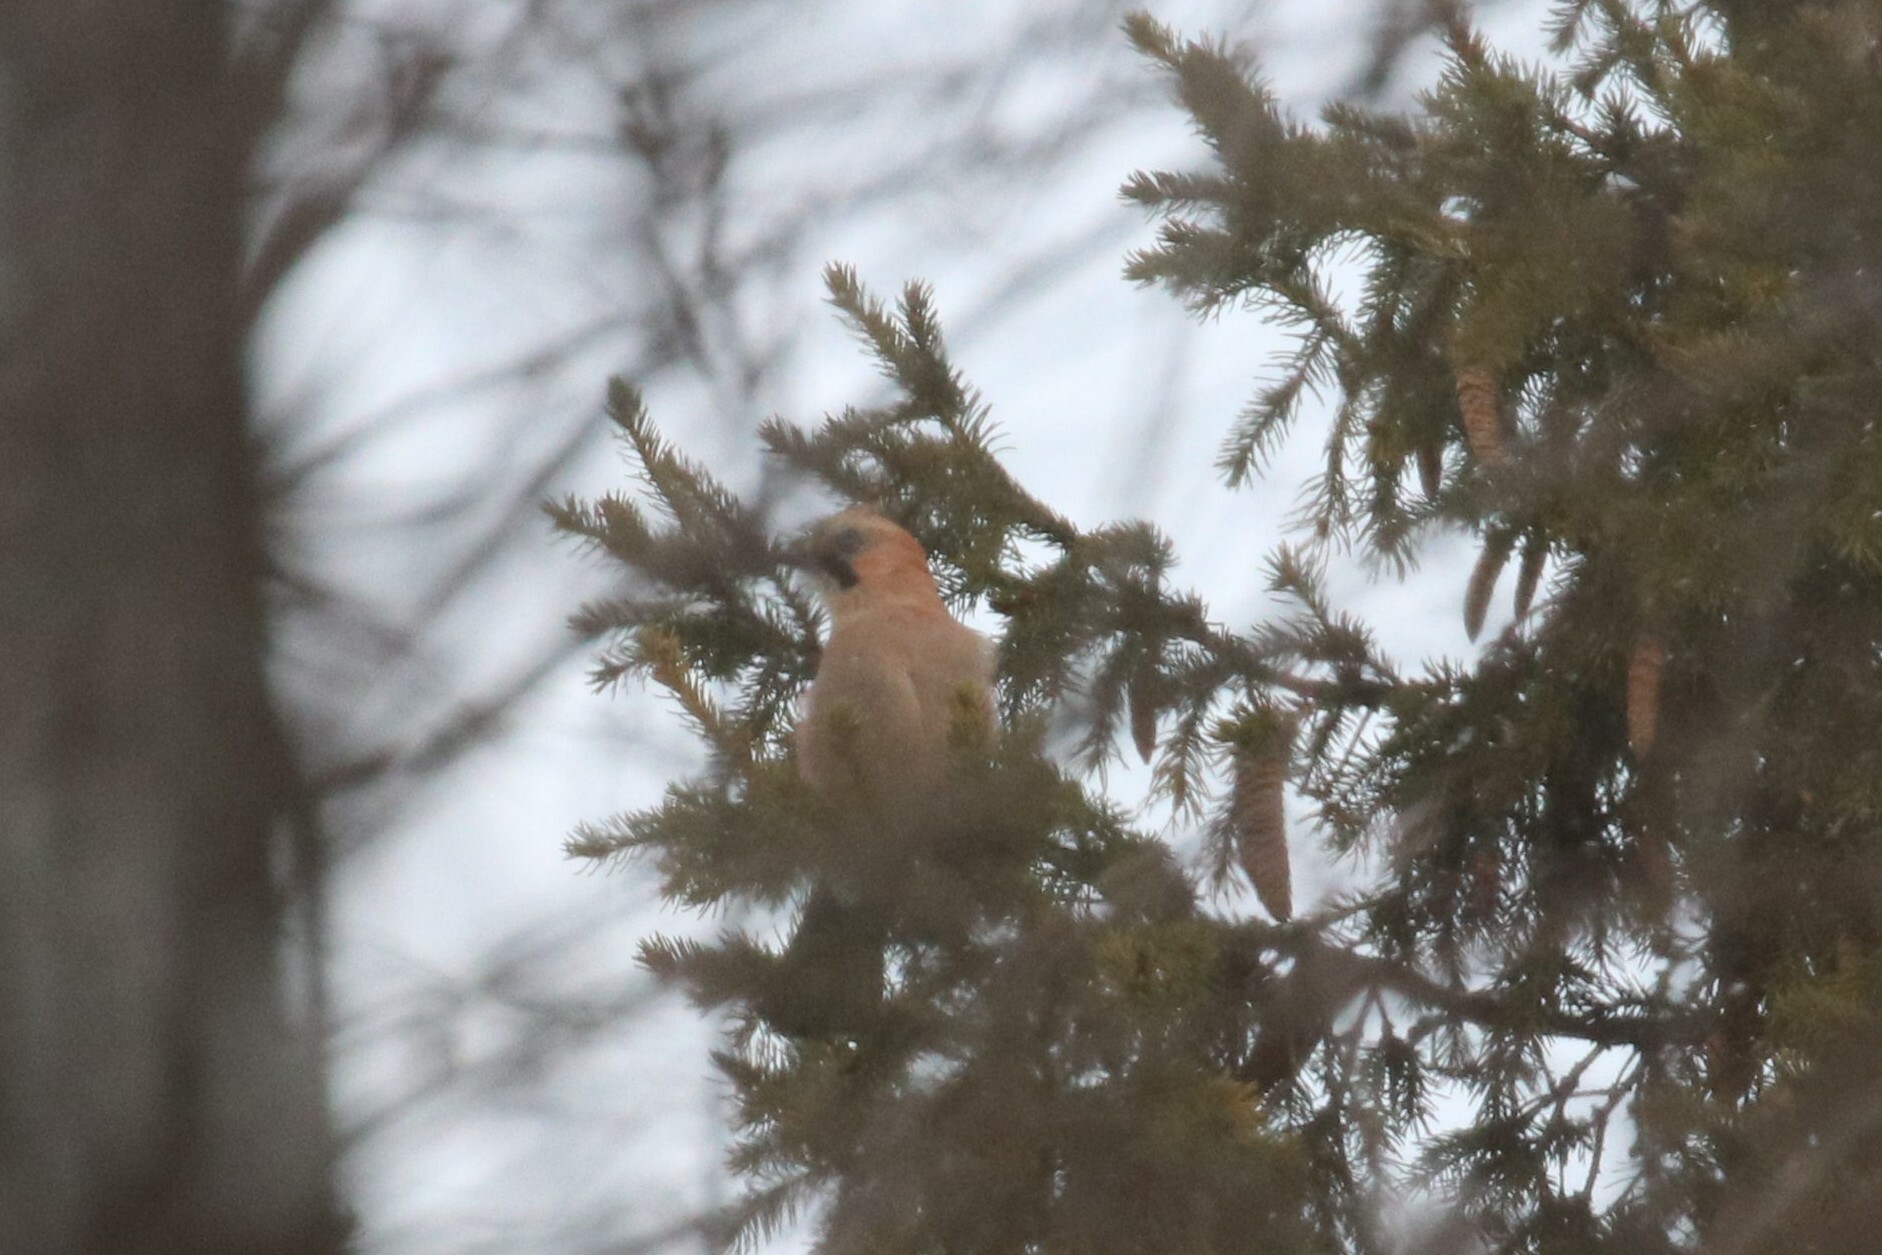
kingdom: Animalia
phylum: Chordata
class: Aves
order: Passeriformes
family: Corvidae
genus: Garrulus
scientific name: Garrulus glandarius
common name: Eurasian jay
